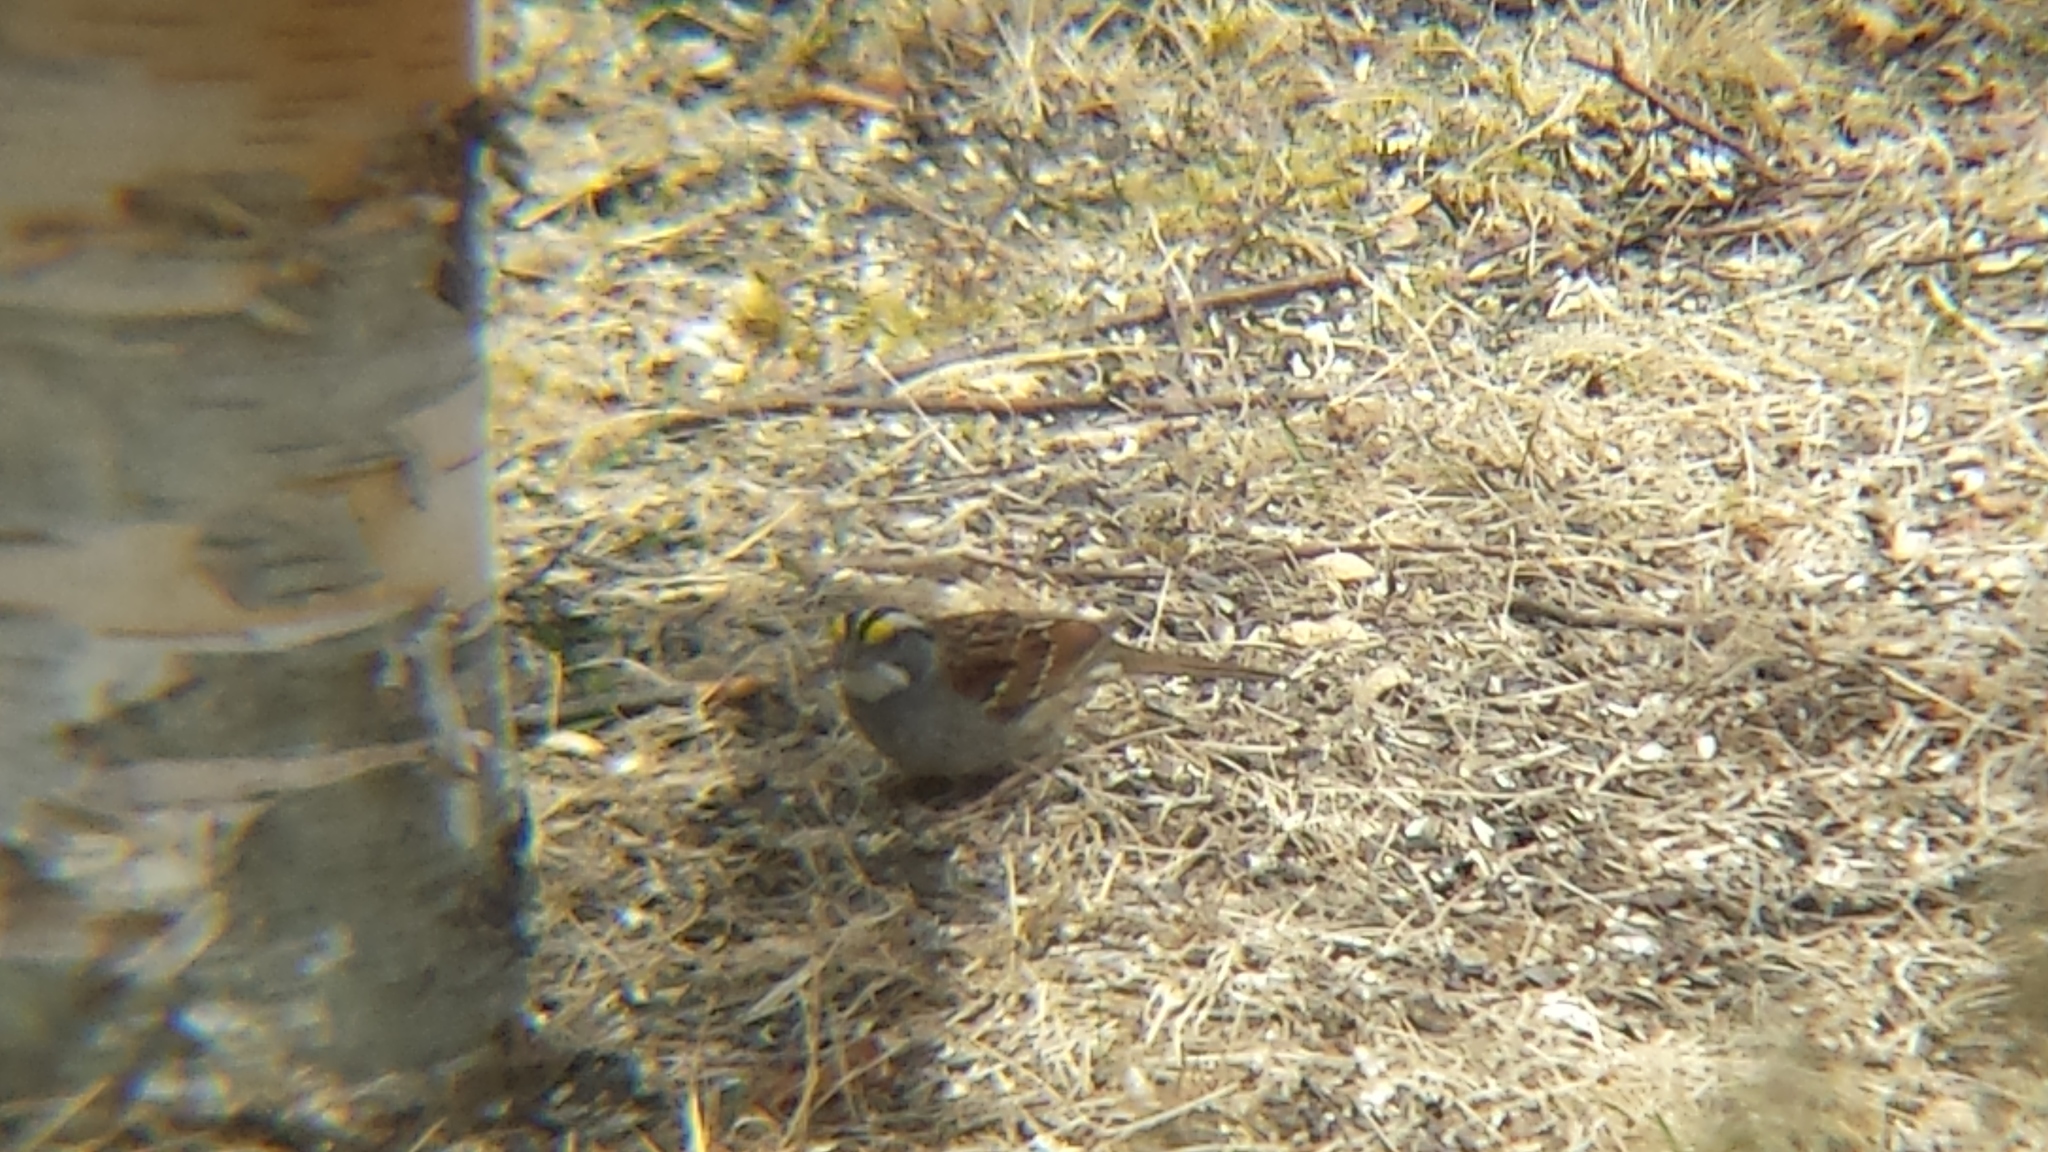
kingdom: Animalia
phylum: Chordata
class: Aves
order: Passeriformes
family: Passerellidae
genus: Zonotrichia
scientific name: Zonotrichia albicollis
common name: White-throated sparrow
